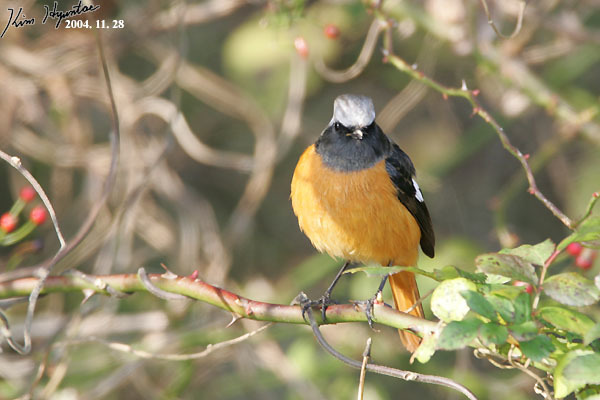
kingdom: Animalia
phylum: Chordata
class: Aves
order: Passeriformes
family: Muscicapidae
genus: Phoenicurus
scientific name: Phoenicurus auroreus
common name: Daurian redstart
